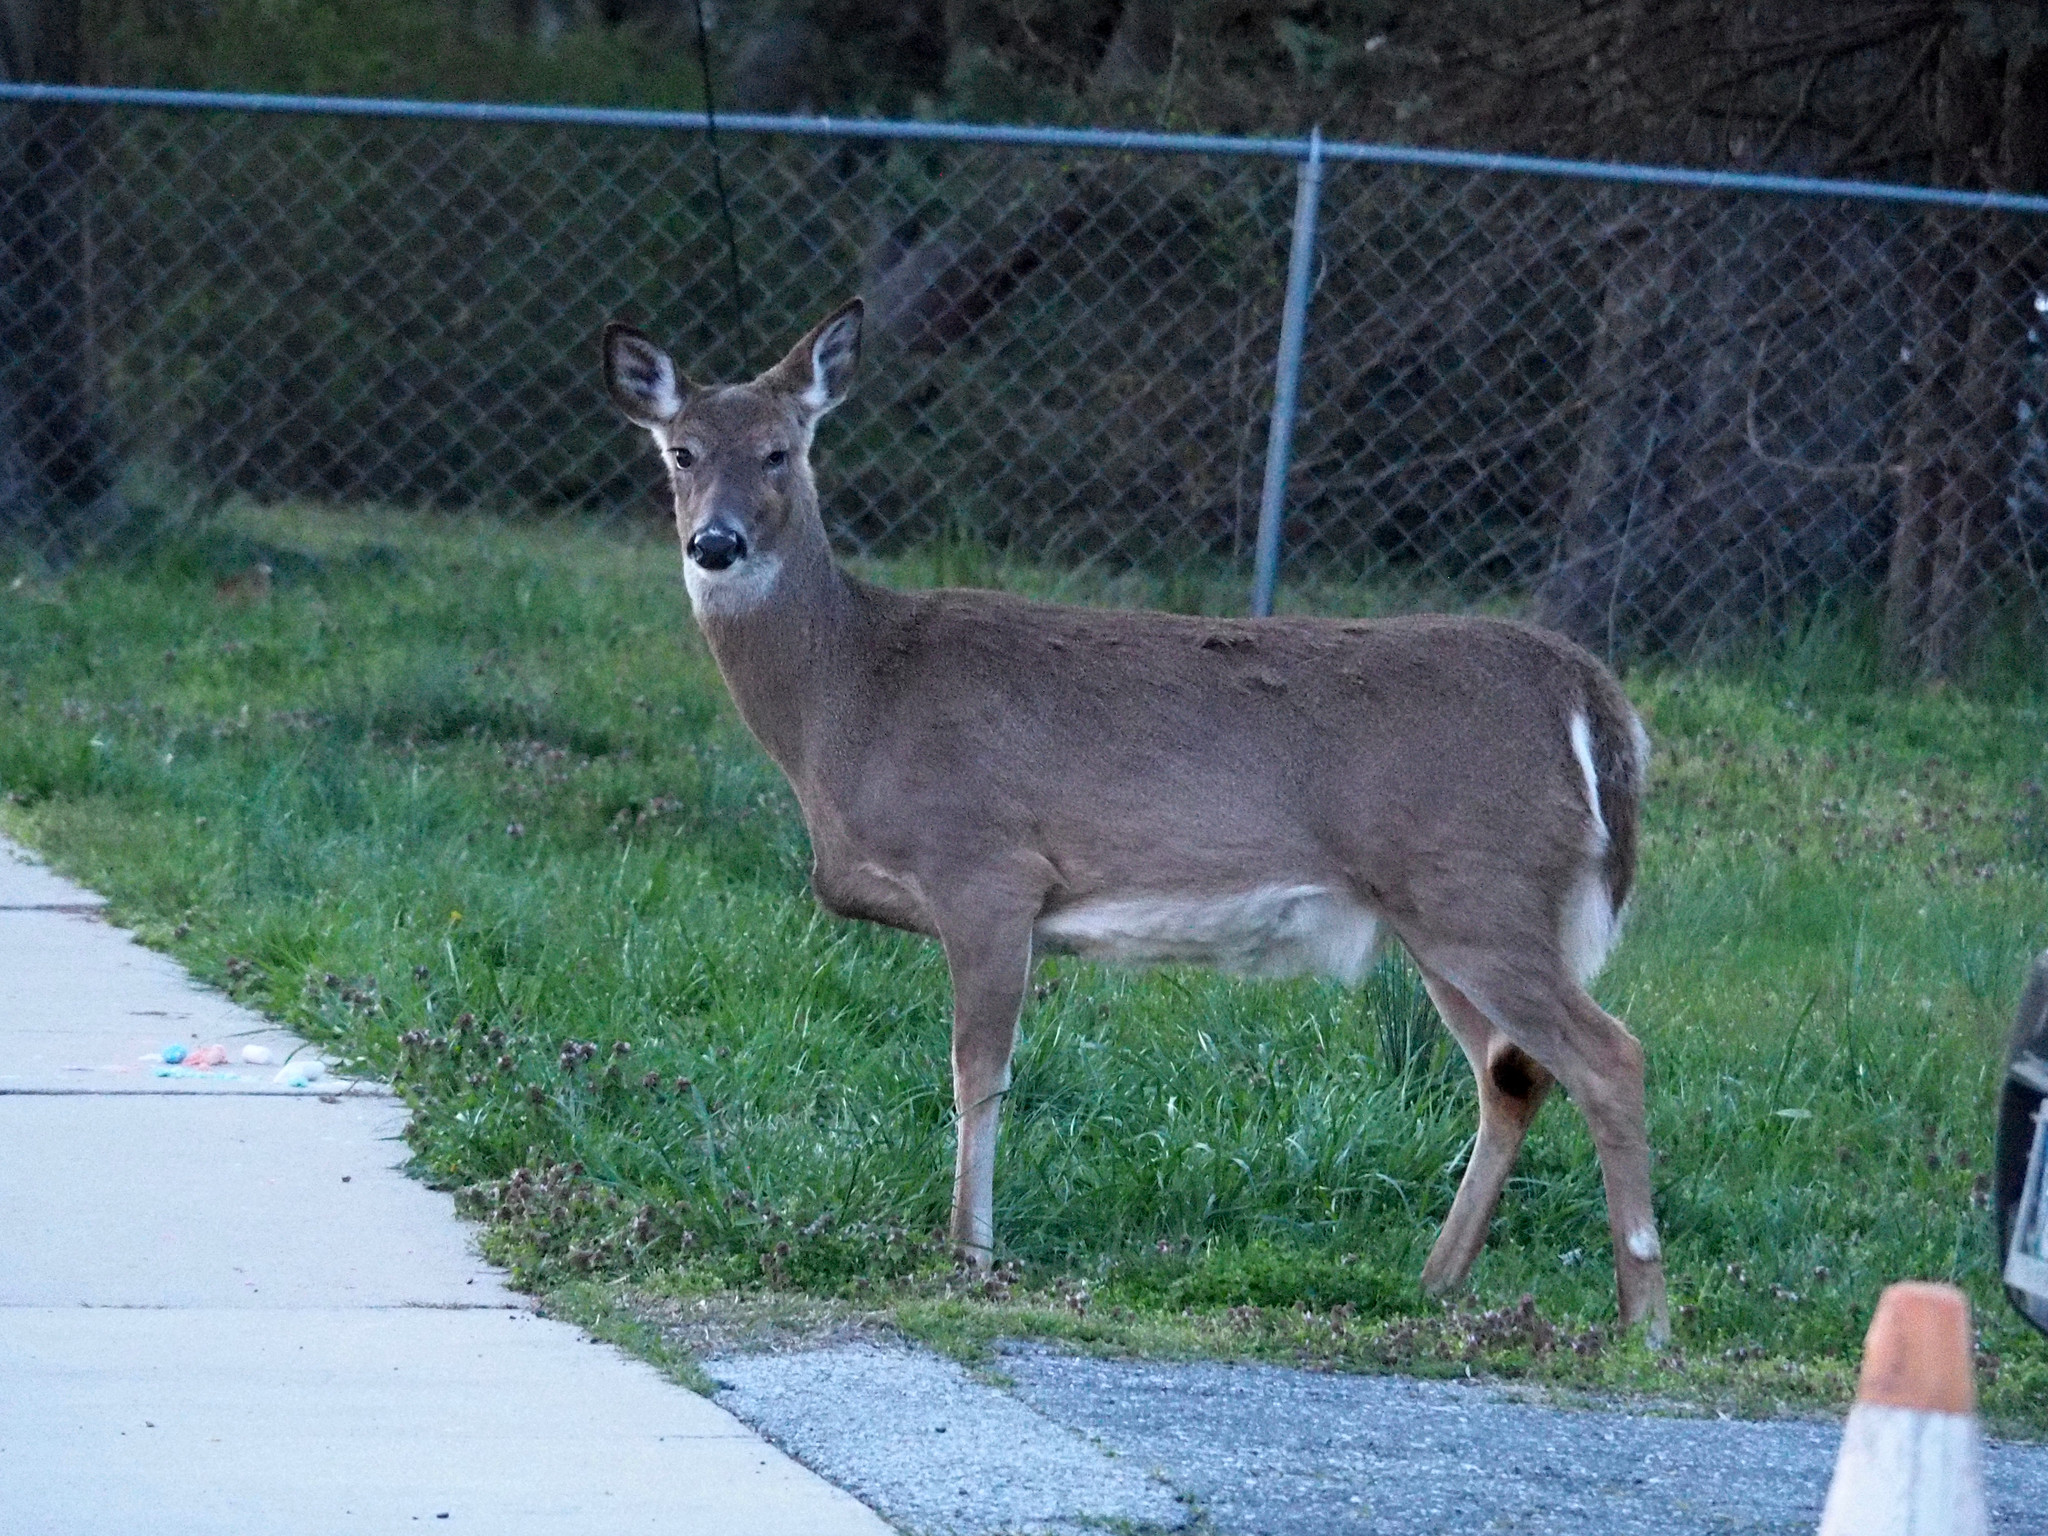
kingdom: Animalia
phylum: Chordata
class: Mammalia
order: Artiodactyla
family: Cervidae
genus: Odocoileus
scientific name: Odocoileus virginianus
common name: White-tailed deer
